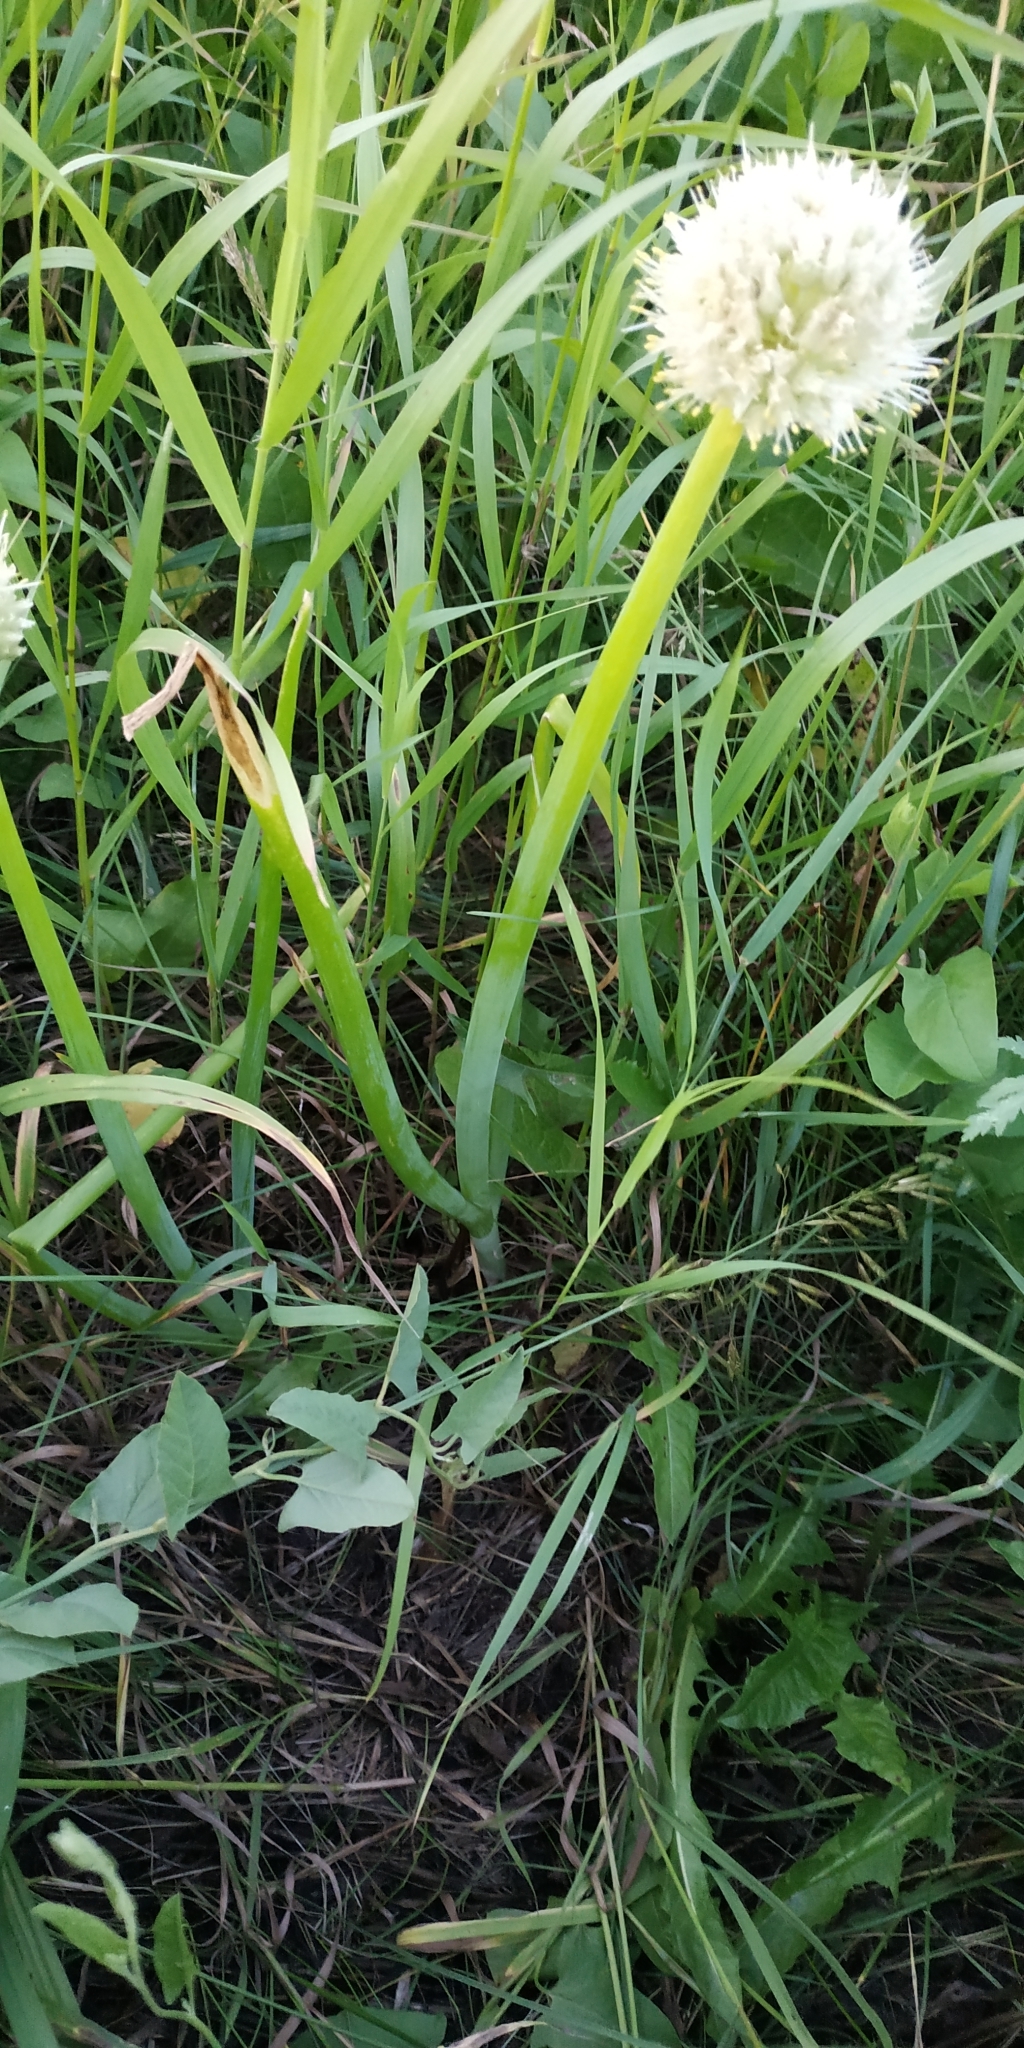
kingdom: Plantae
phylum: Tracheophyta
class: Liliopsida
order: Asparagales
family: Amaryllidaceae
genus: Allium
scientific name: Allium fistulosum
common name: Welsh onion
